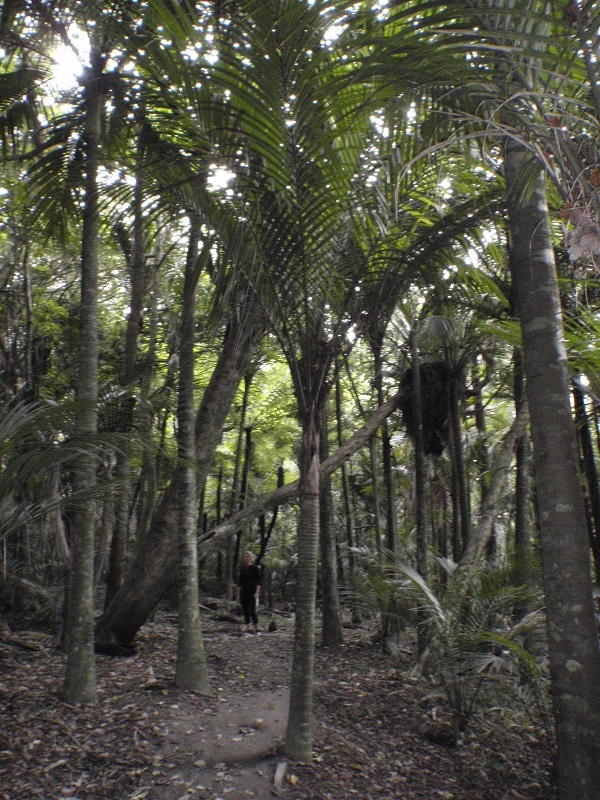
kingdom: Plantae
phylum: Tracheophyta
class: Liliopsida
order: Arecales
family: Arecaceae
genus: Rhopalostylis
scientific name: Rhopalostylis sapida
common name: Feather-duster palm
